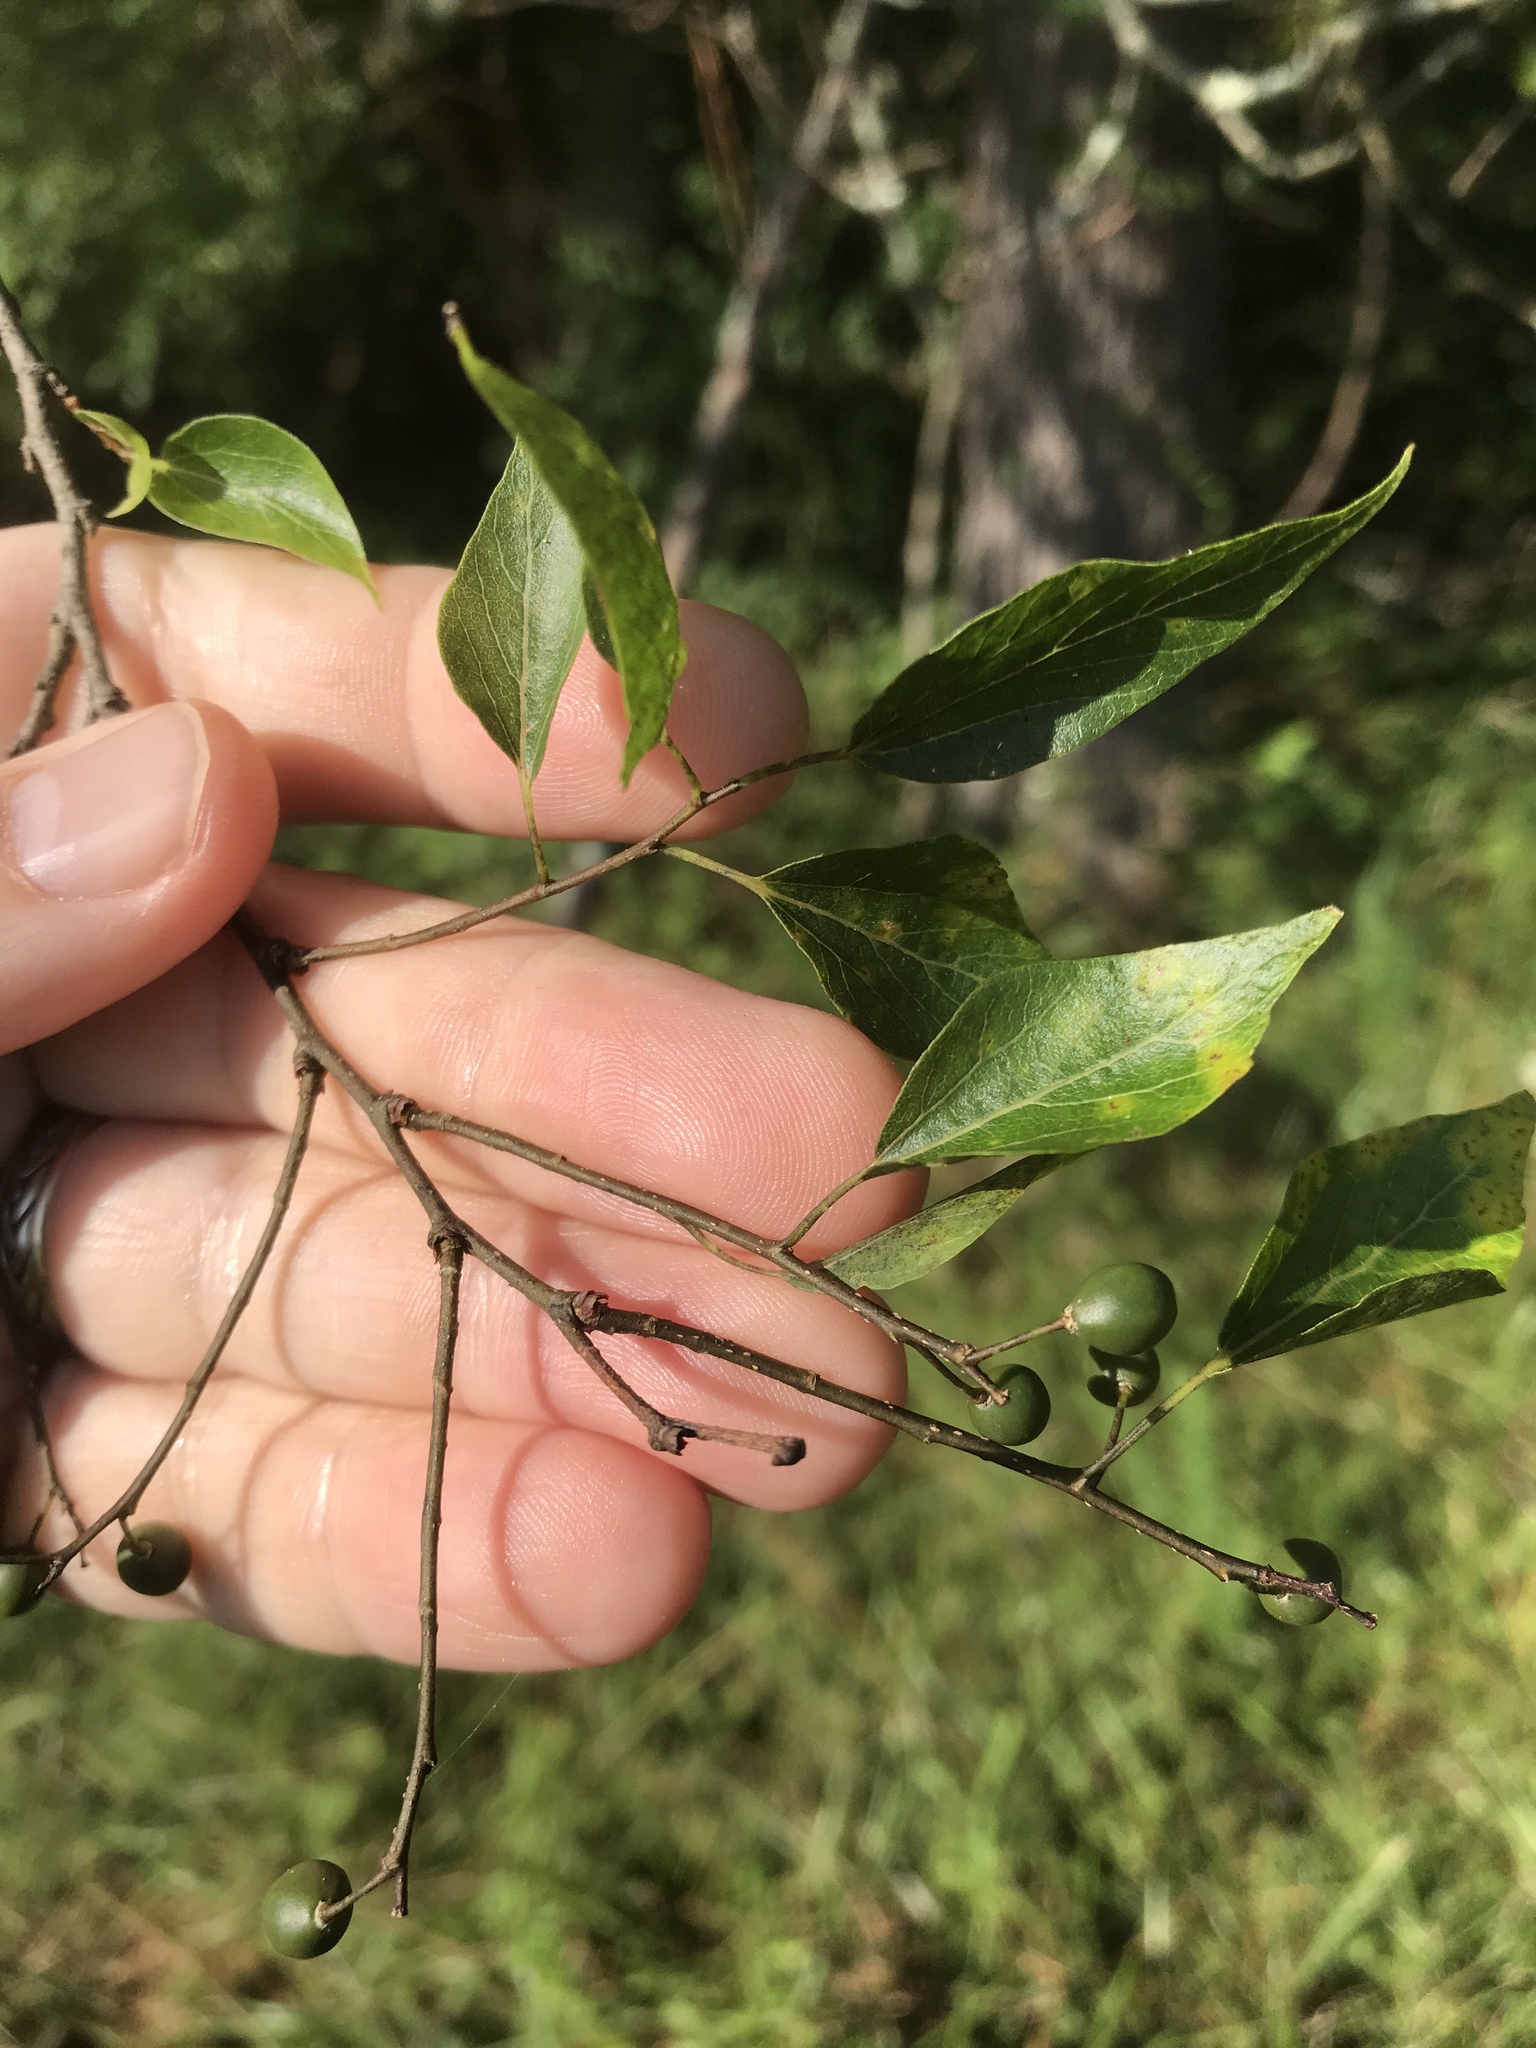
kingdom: Plantae
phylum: Tracheophyta
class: Magnoliopsida
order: Rosales
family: Cannabaceae
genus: Celtis
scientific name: Celtis laevigata
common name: Sugarberry
